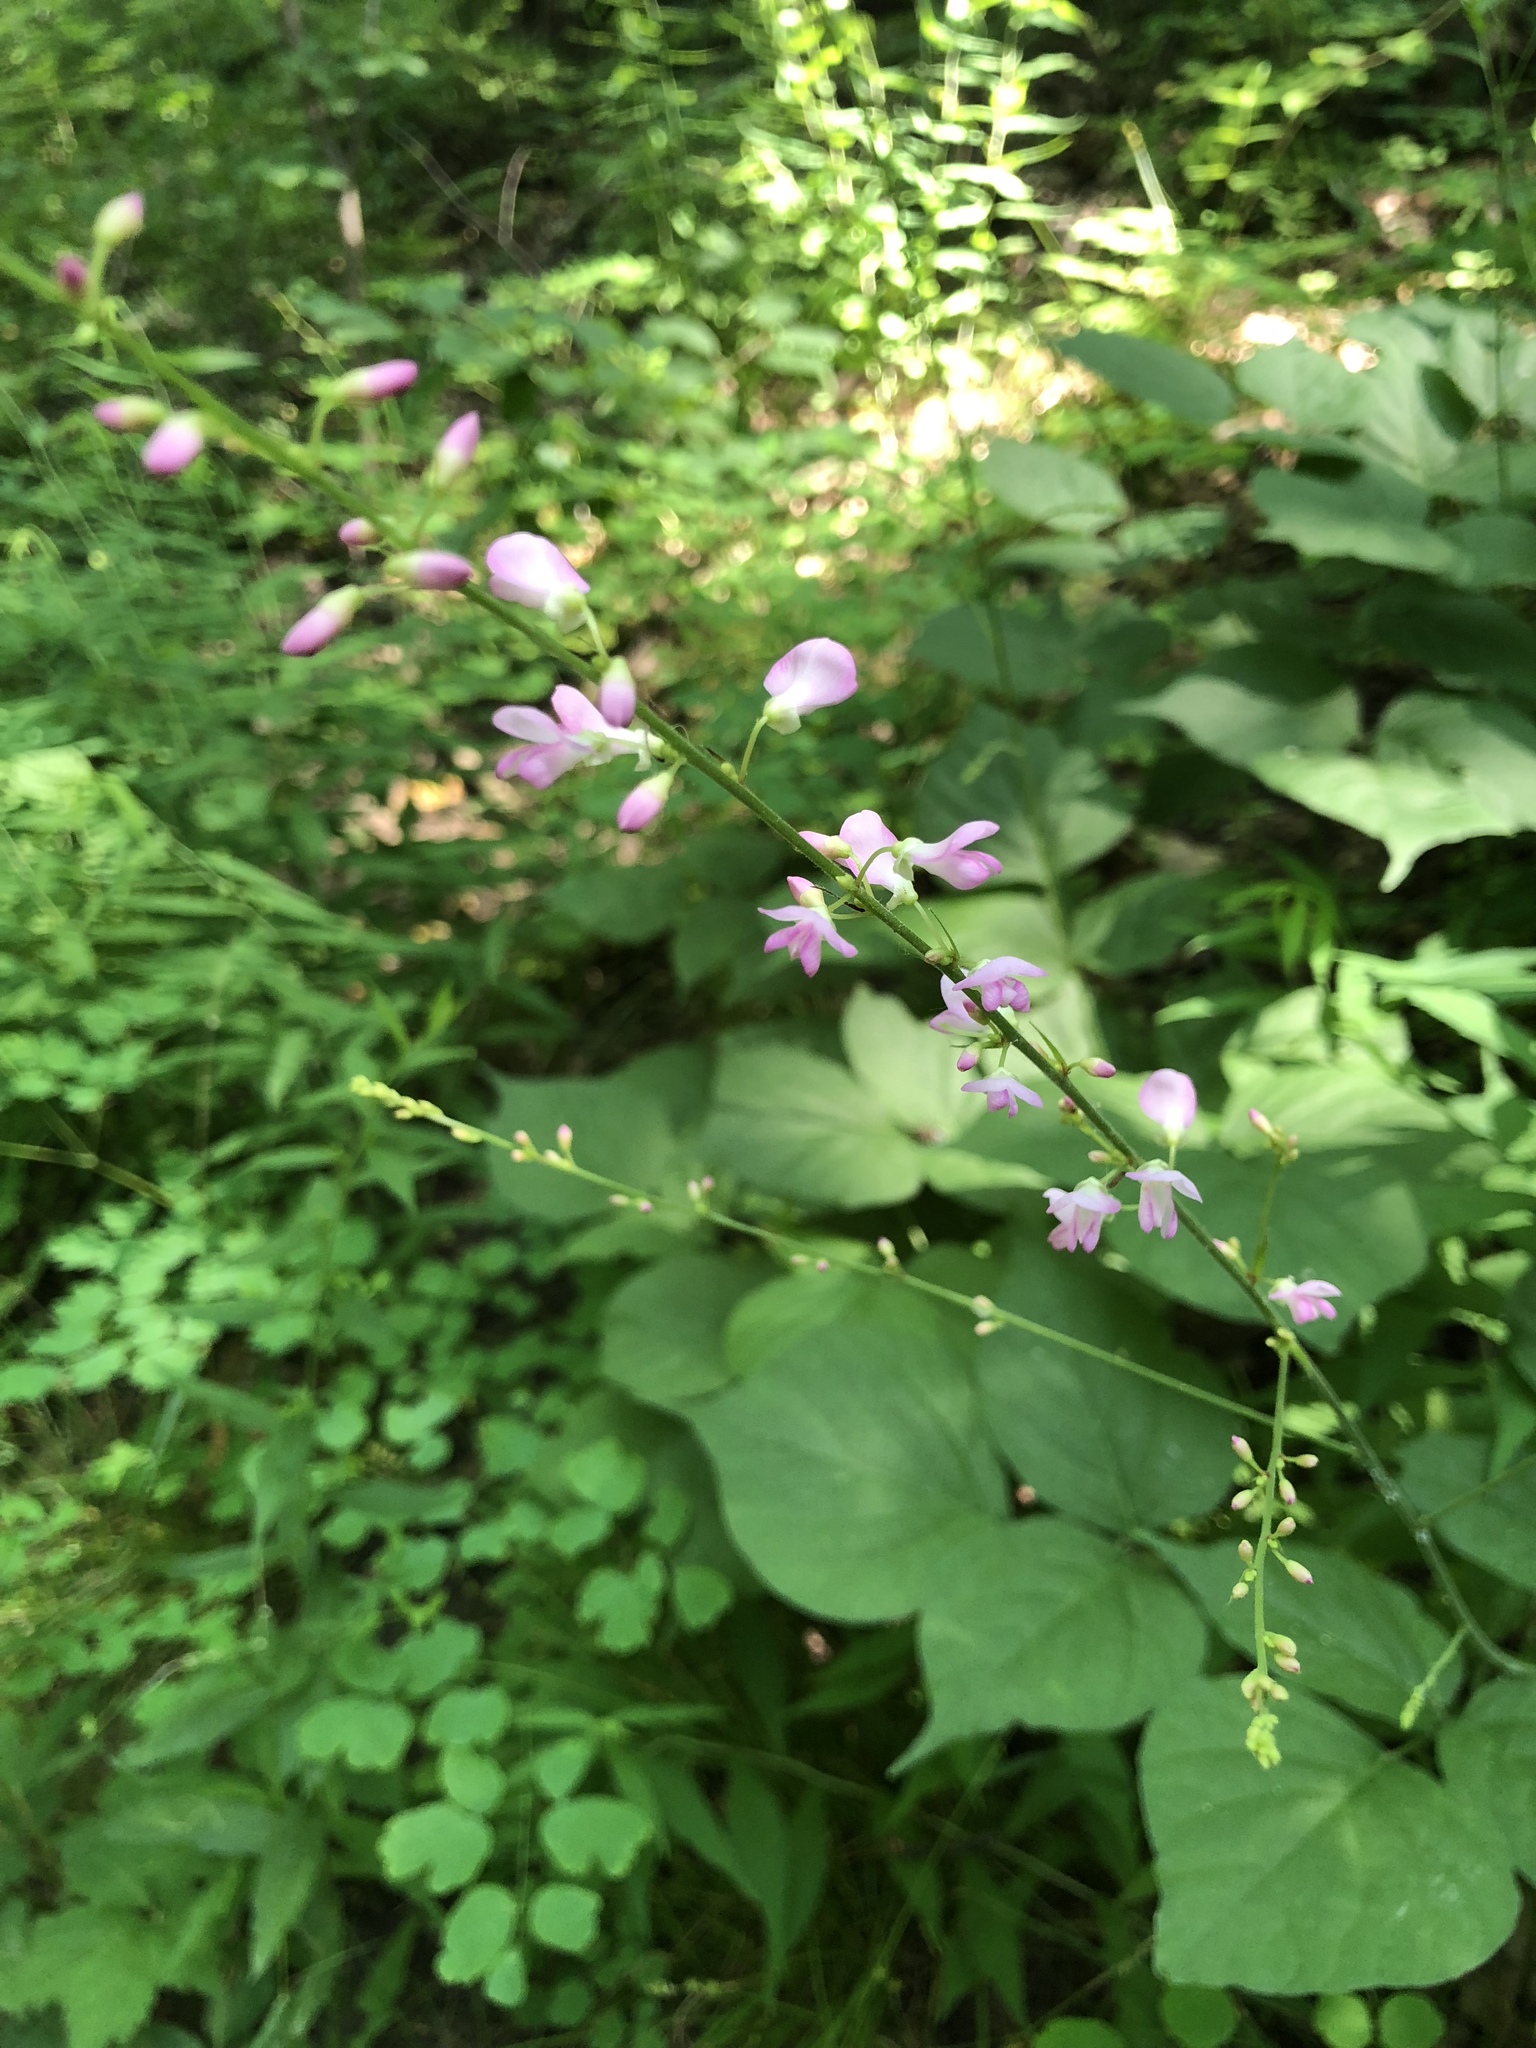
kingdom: Plantae
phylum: Tracheophyta
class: Magnoliopsida
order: Fabales
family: Fabaceae
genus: Hylodesmum
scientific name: Hylodesmum glutinosum
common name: Clustered-leaved tick-trefoil
